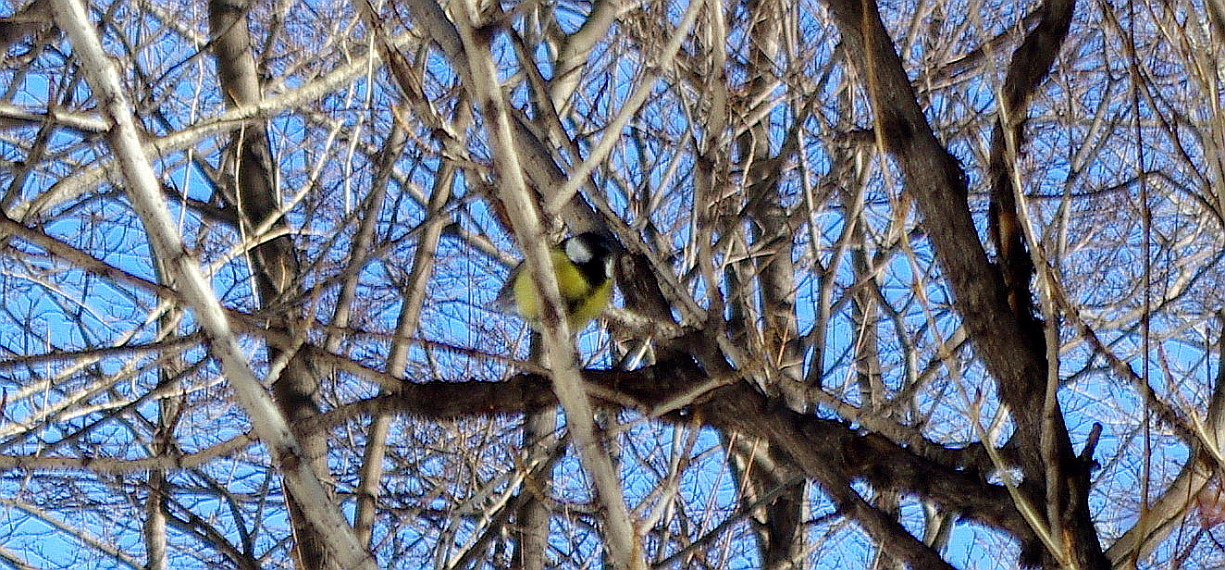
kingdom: Animalia
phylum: Chordata
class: Aves
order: Passeriformes
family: Paridae
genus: Parus
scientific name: Parus major
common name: Great tit
